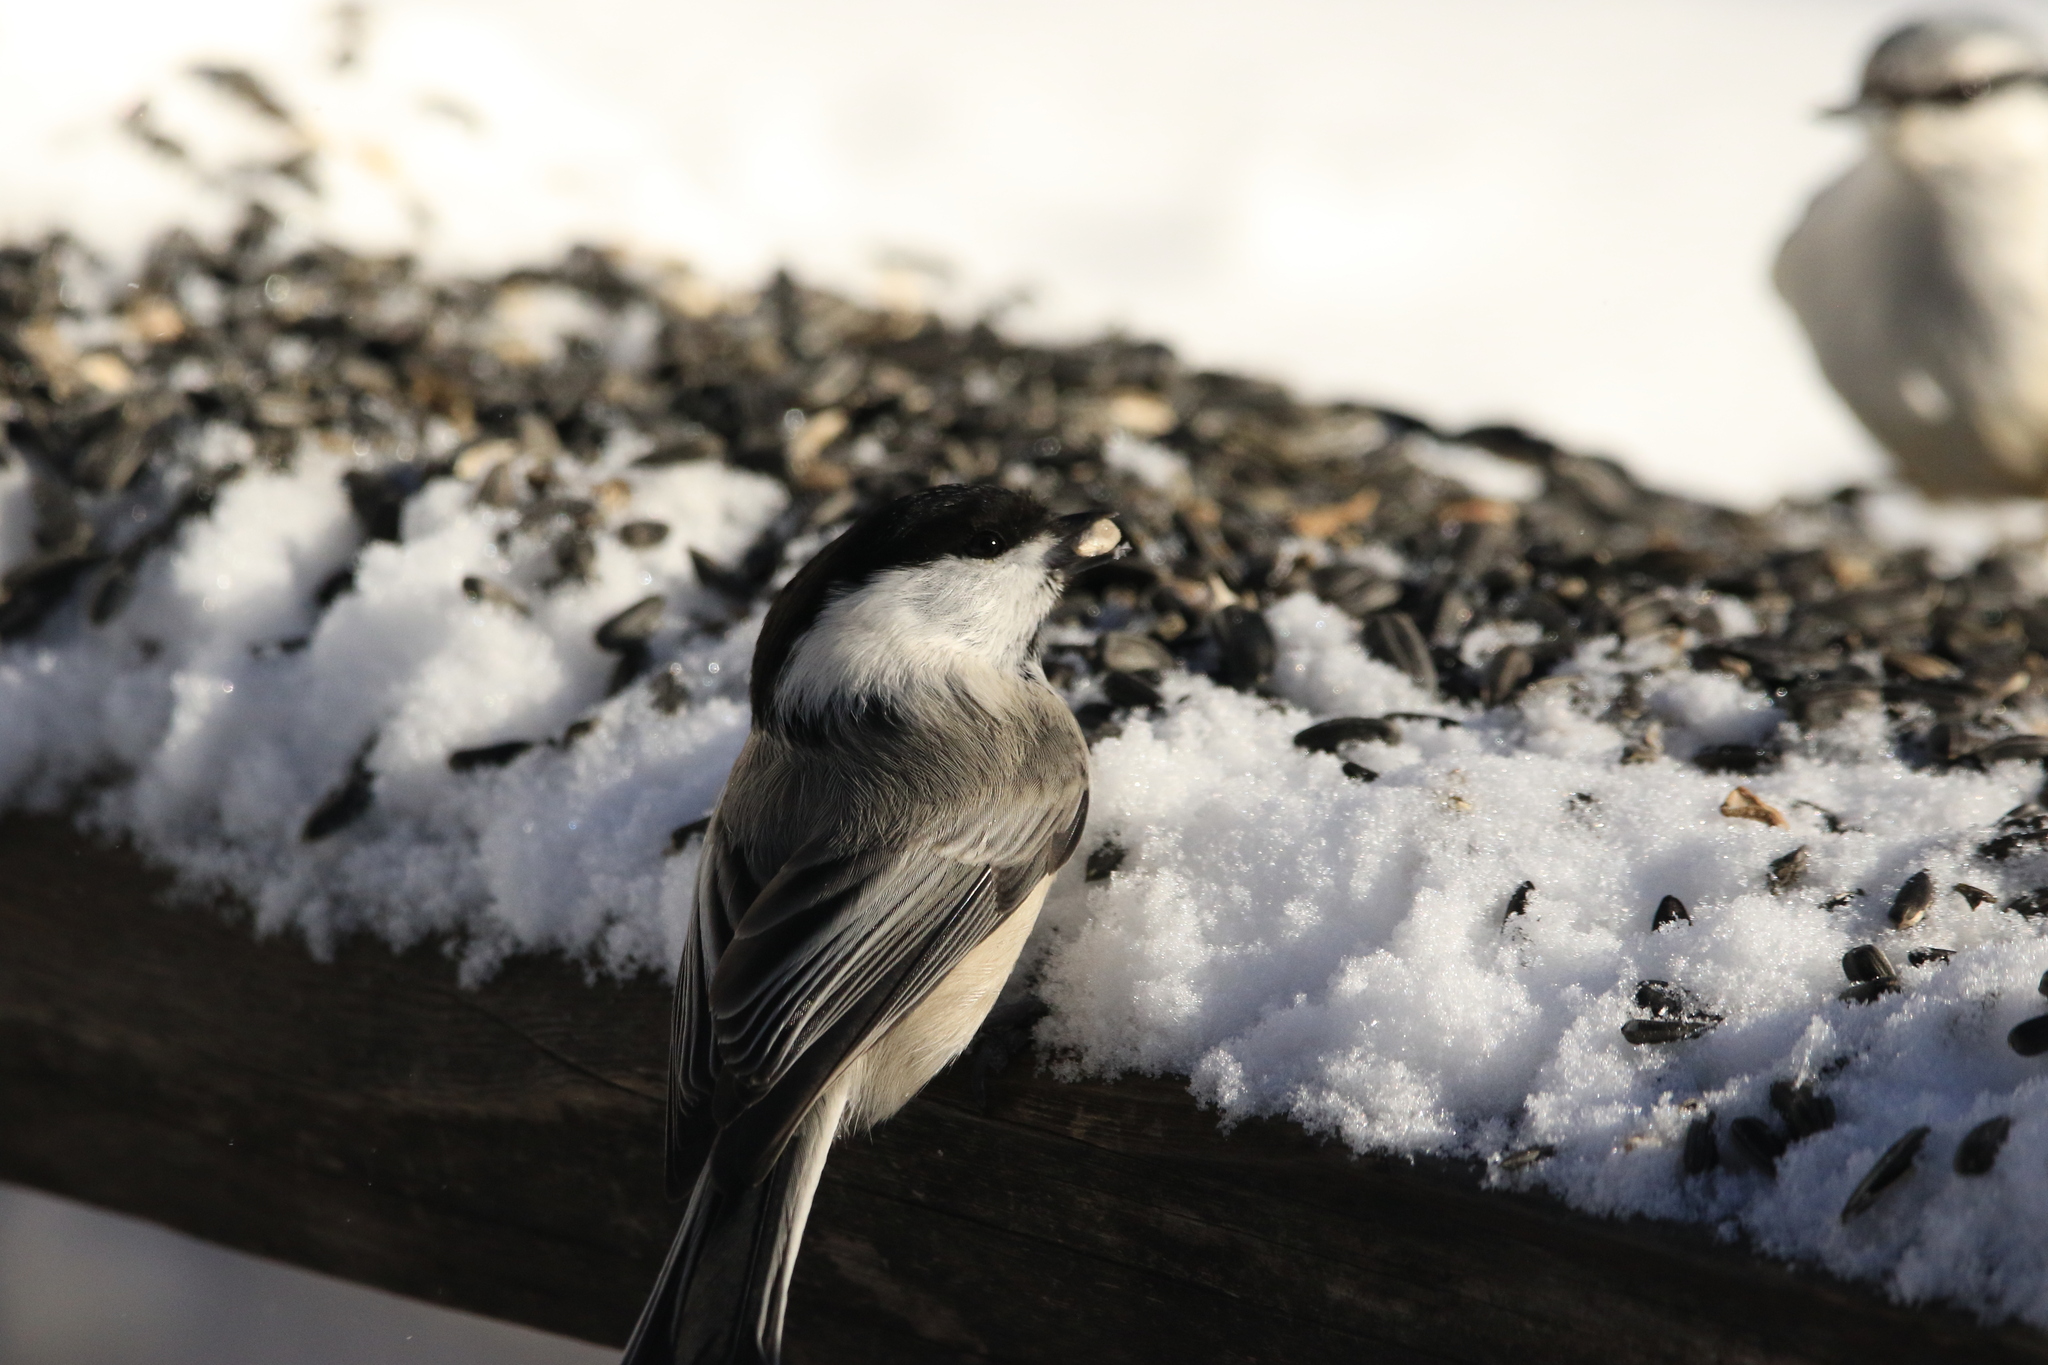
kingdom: Animalia
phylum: Chordata
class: Aves
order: Passeriformes
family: Paridae
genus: Poecile
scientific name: Poecile montanus
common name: Willow tit
